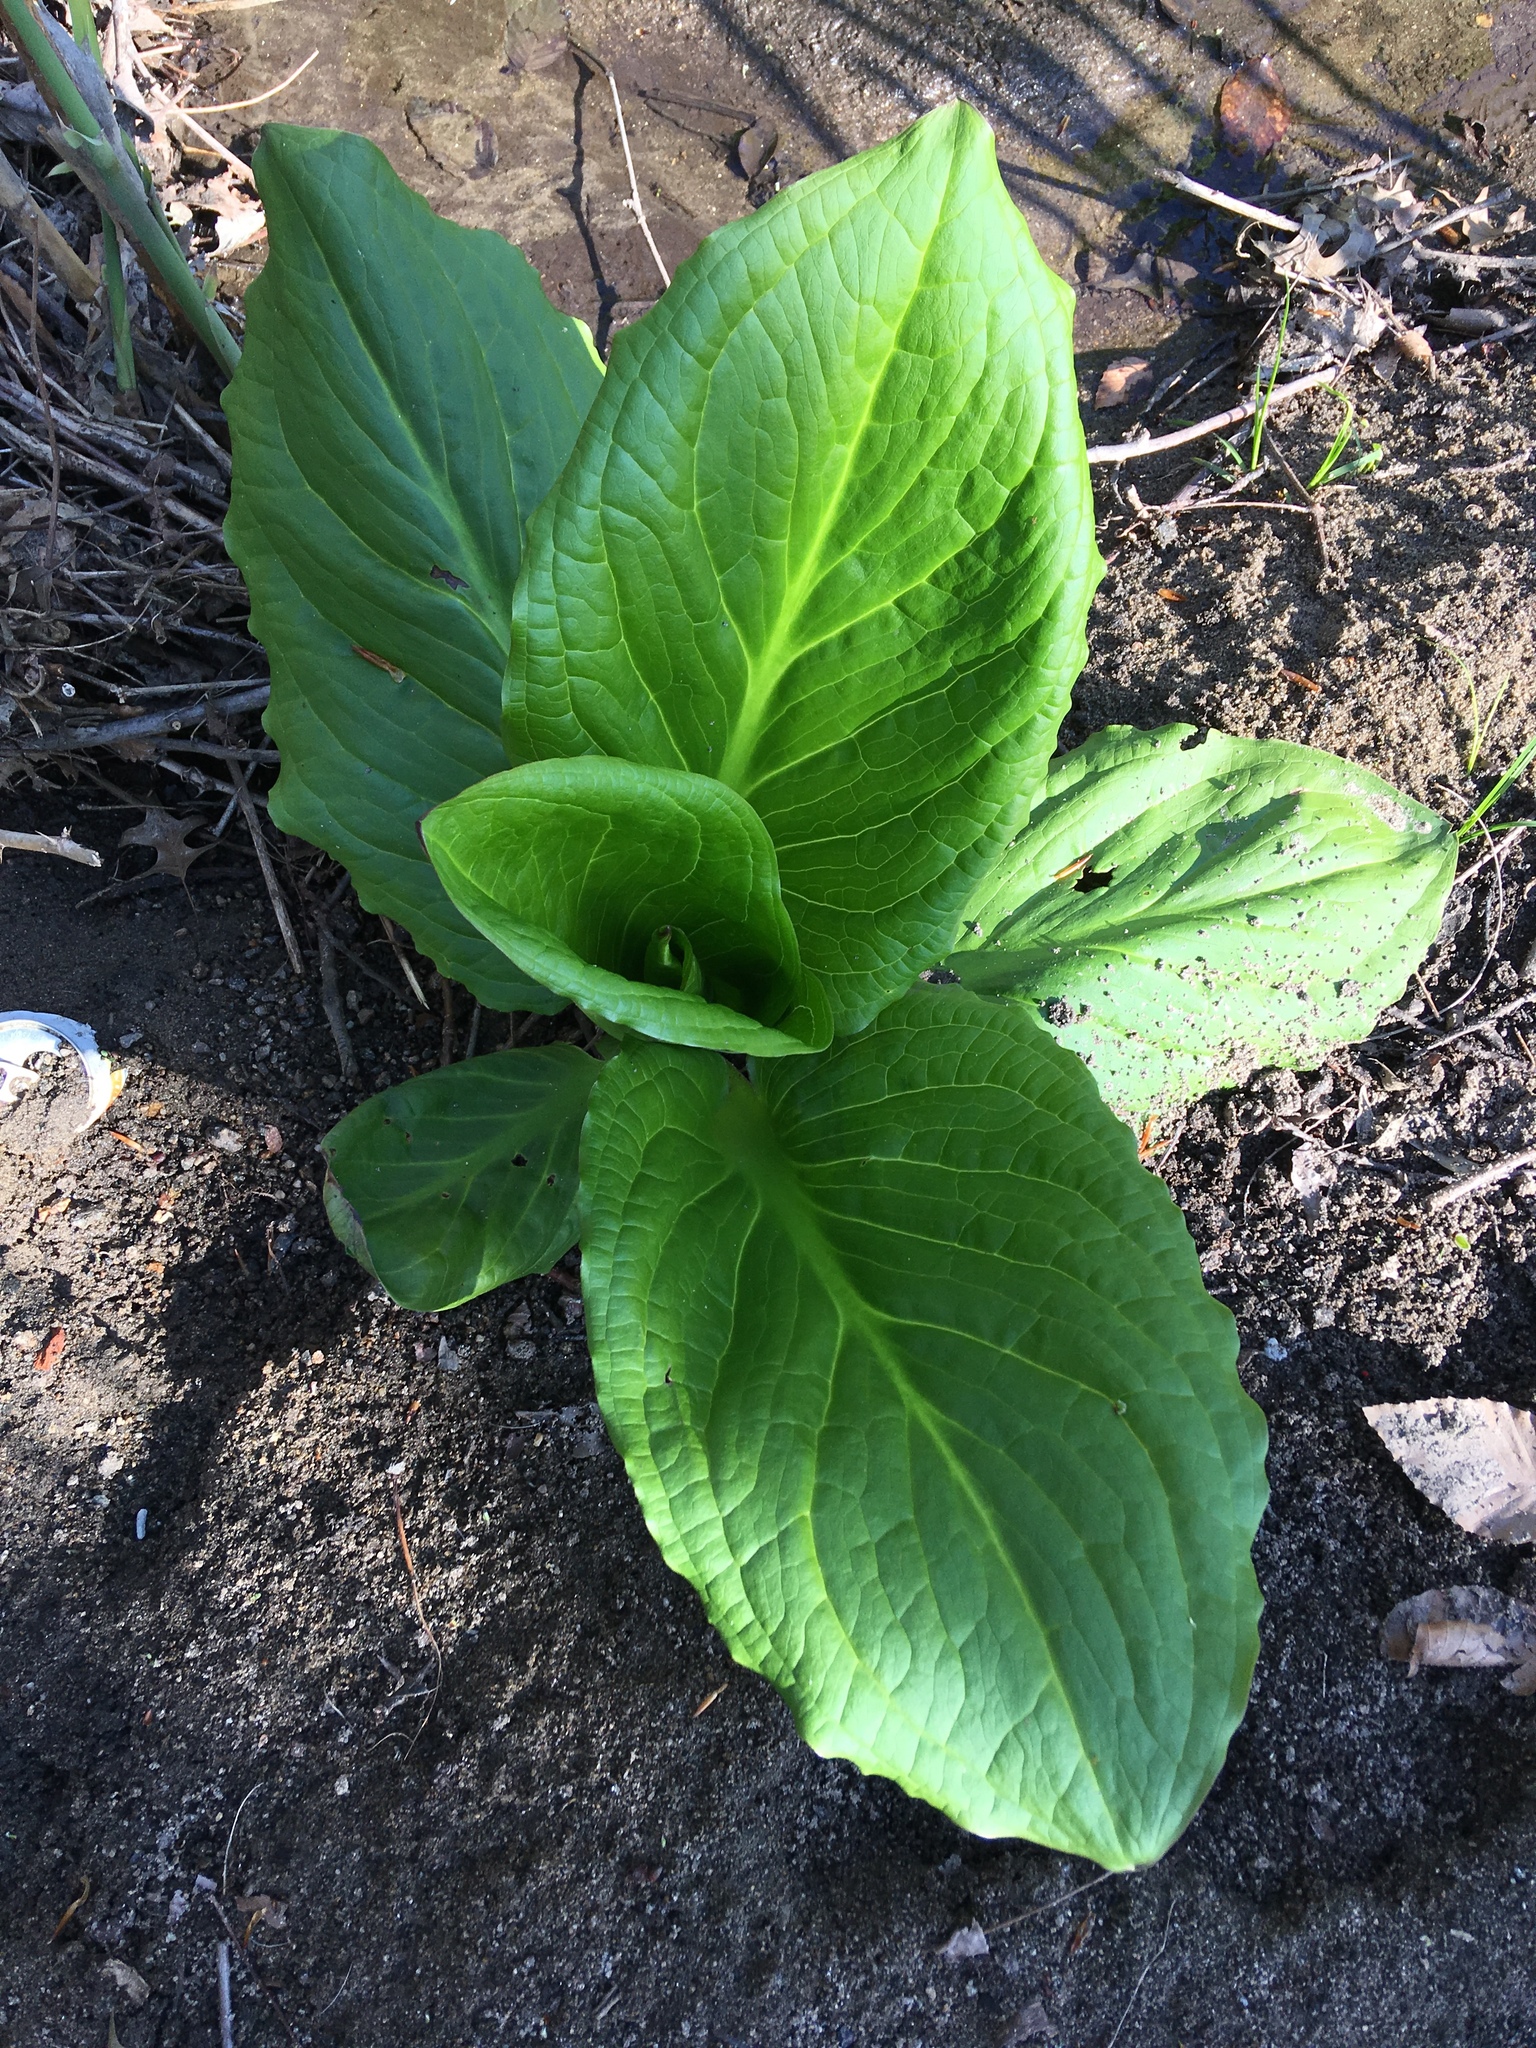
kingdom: Plantae
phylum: Tracheophyta
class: Liliopsida
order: Alismatales
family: Araceae
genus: Symplocarpus
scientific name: Symplocarpus foetidus
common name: Eastern skunk cabbage
